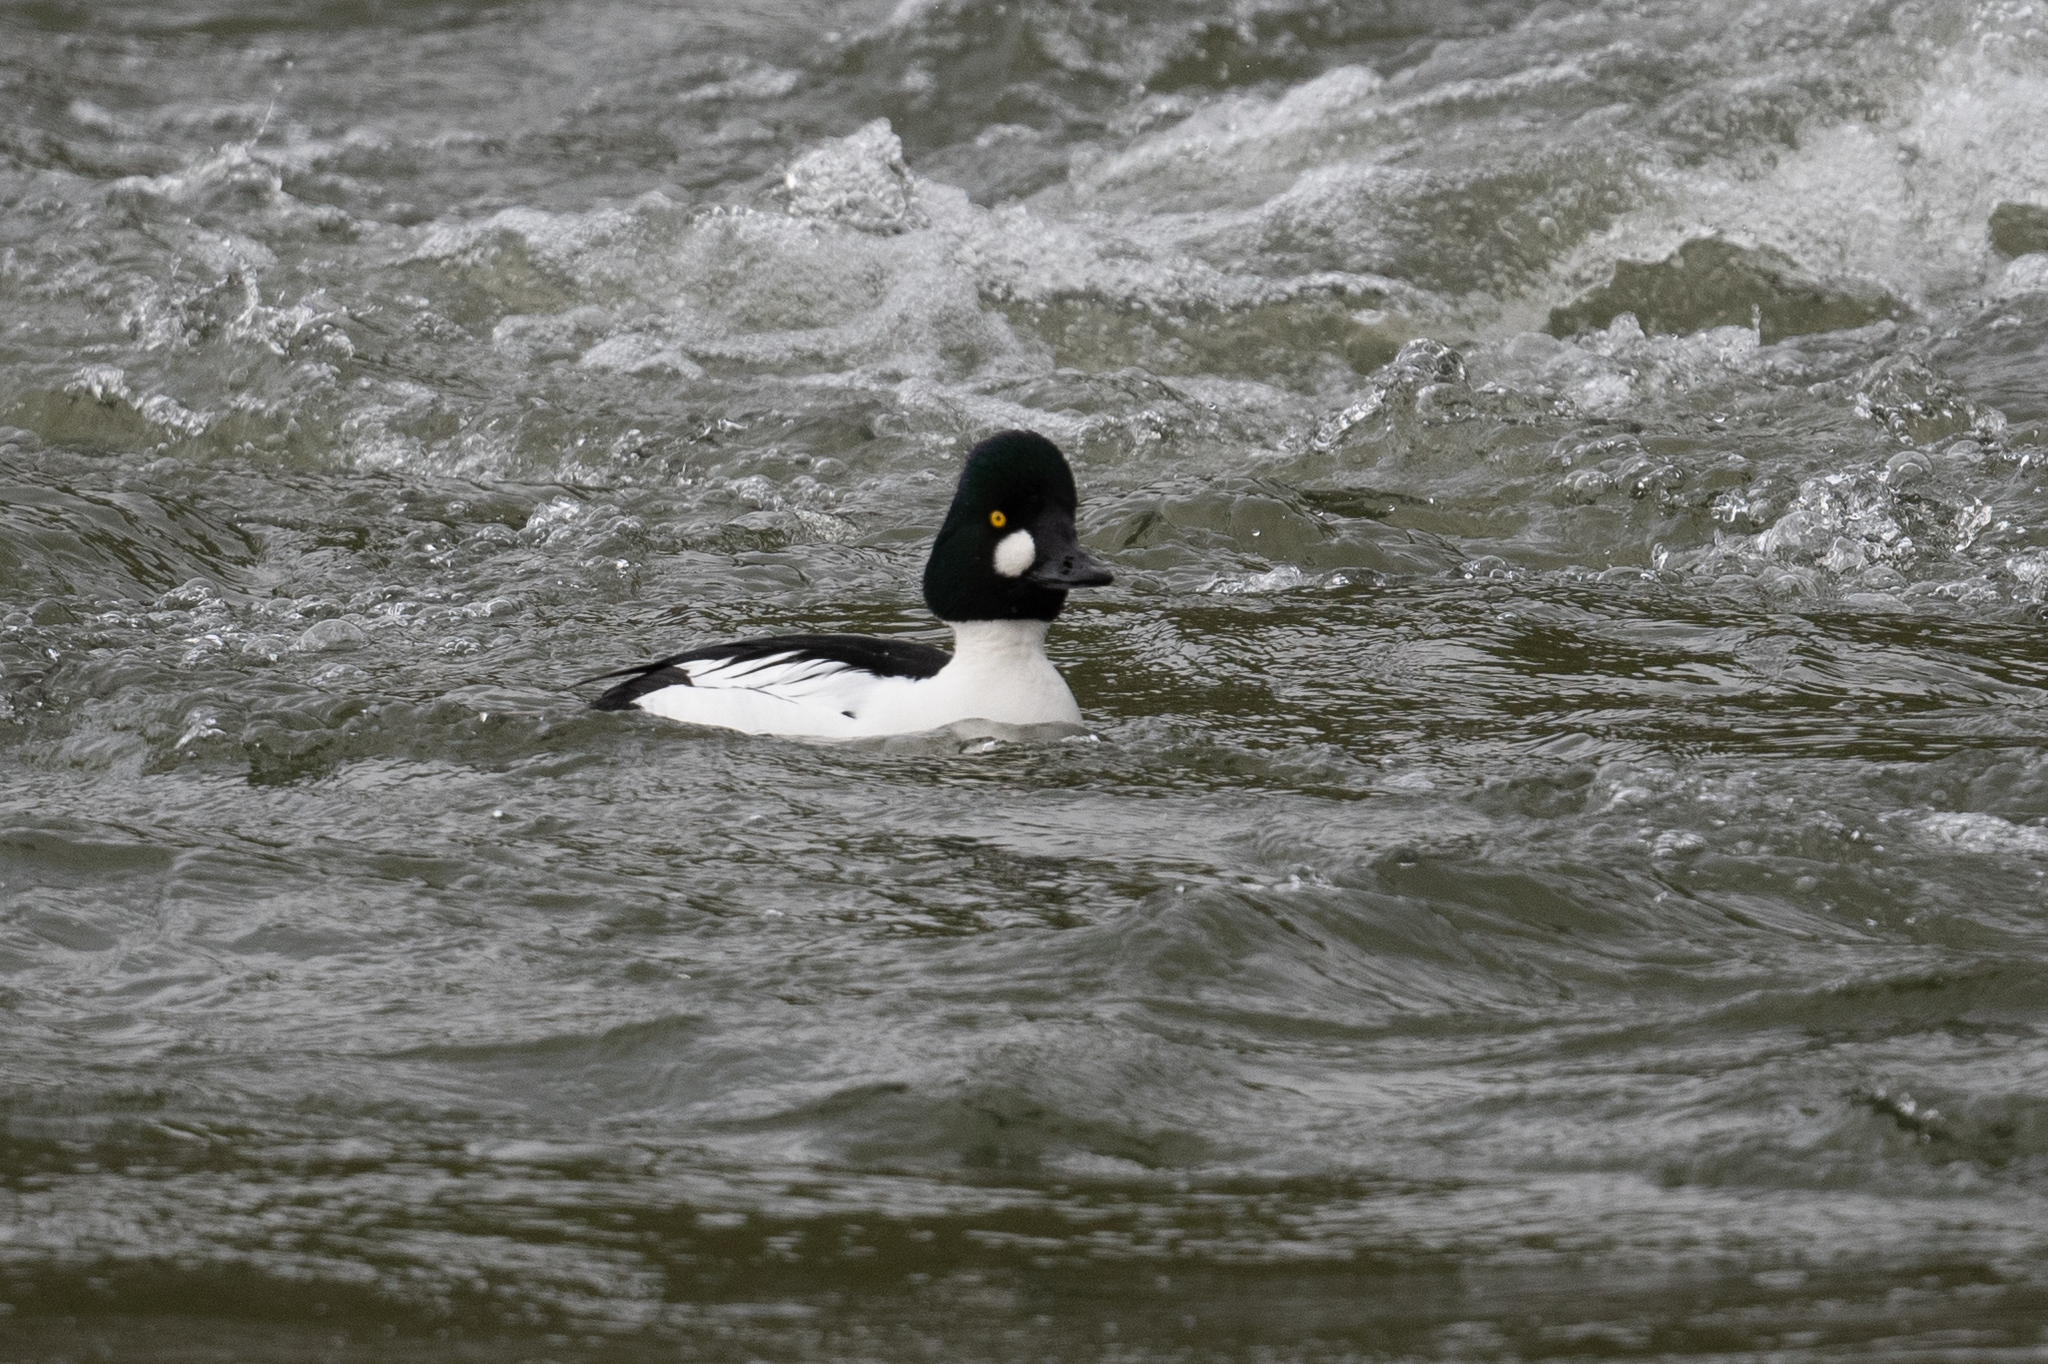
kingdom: Animalia
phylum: Chordata
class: Aves
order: Anseriformes
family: Anatidae
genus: Bucephala
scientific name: Bucephala clangula
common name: Common goldeneye
